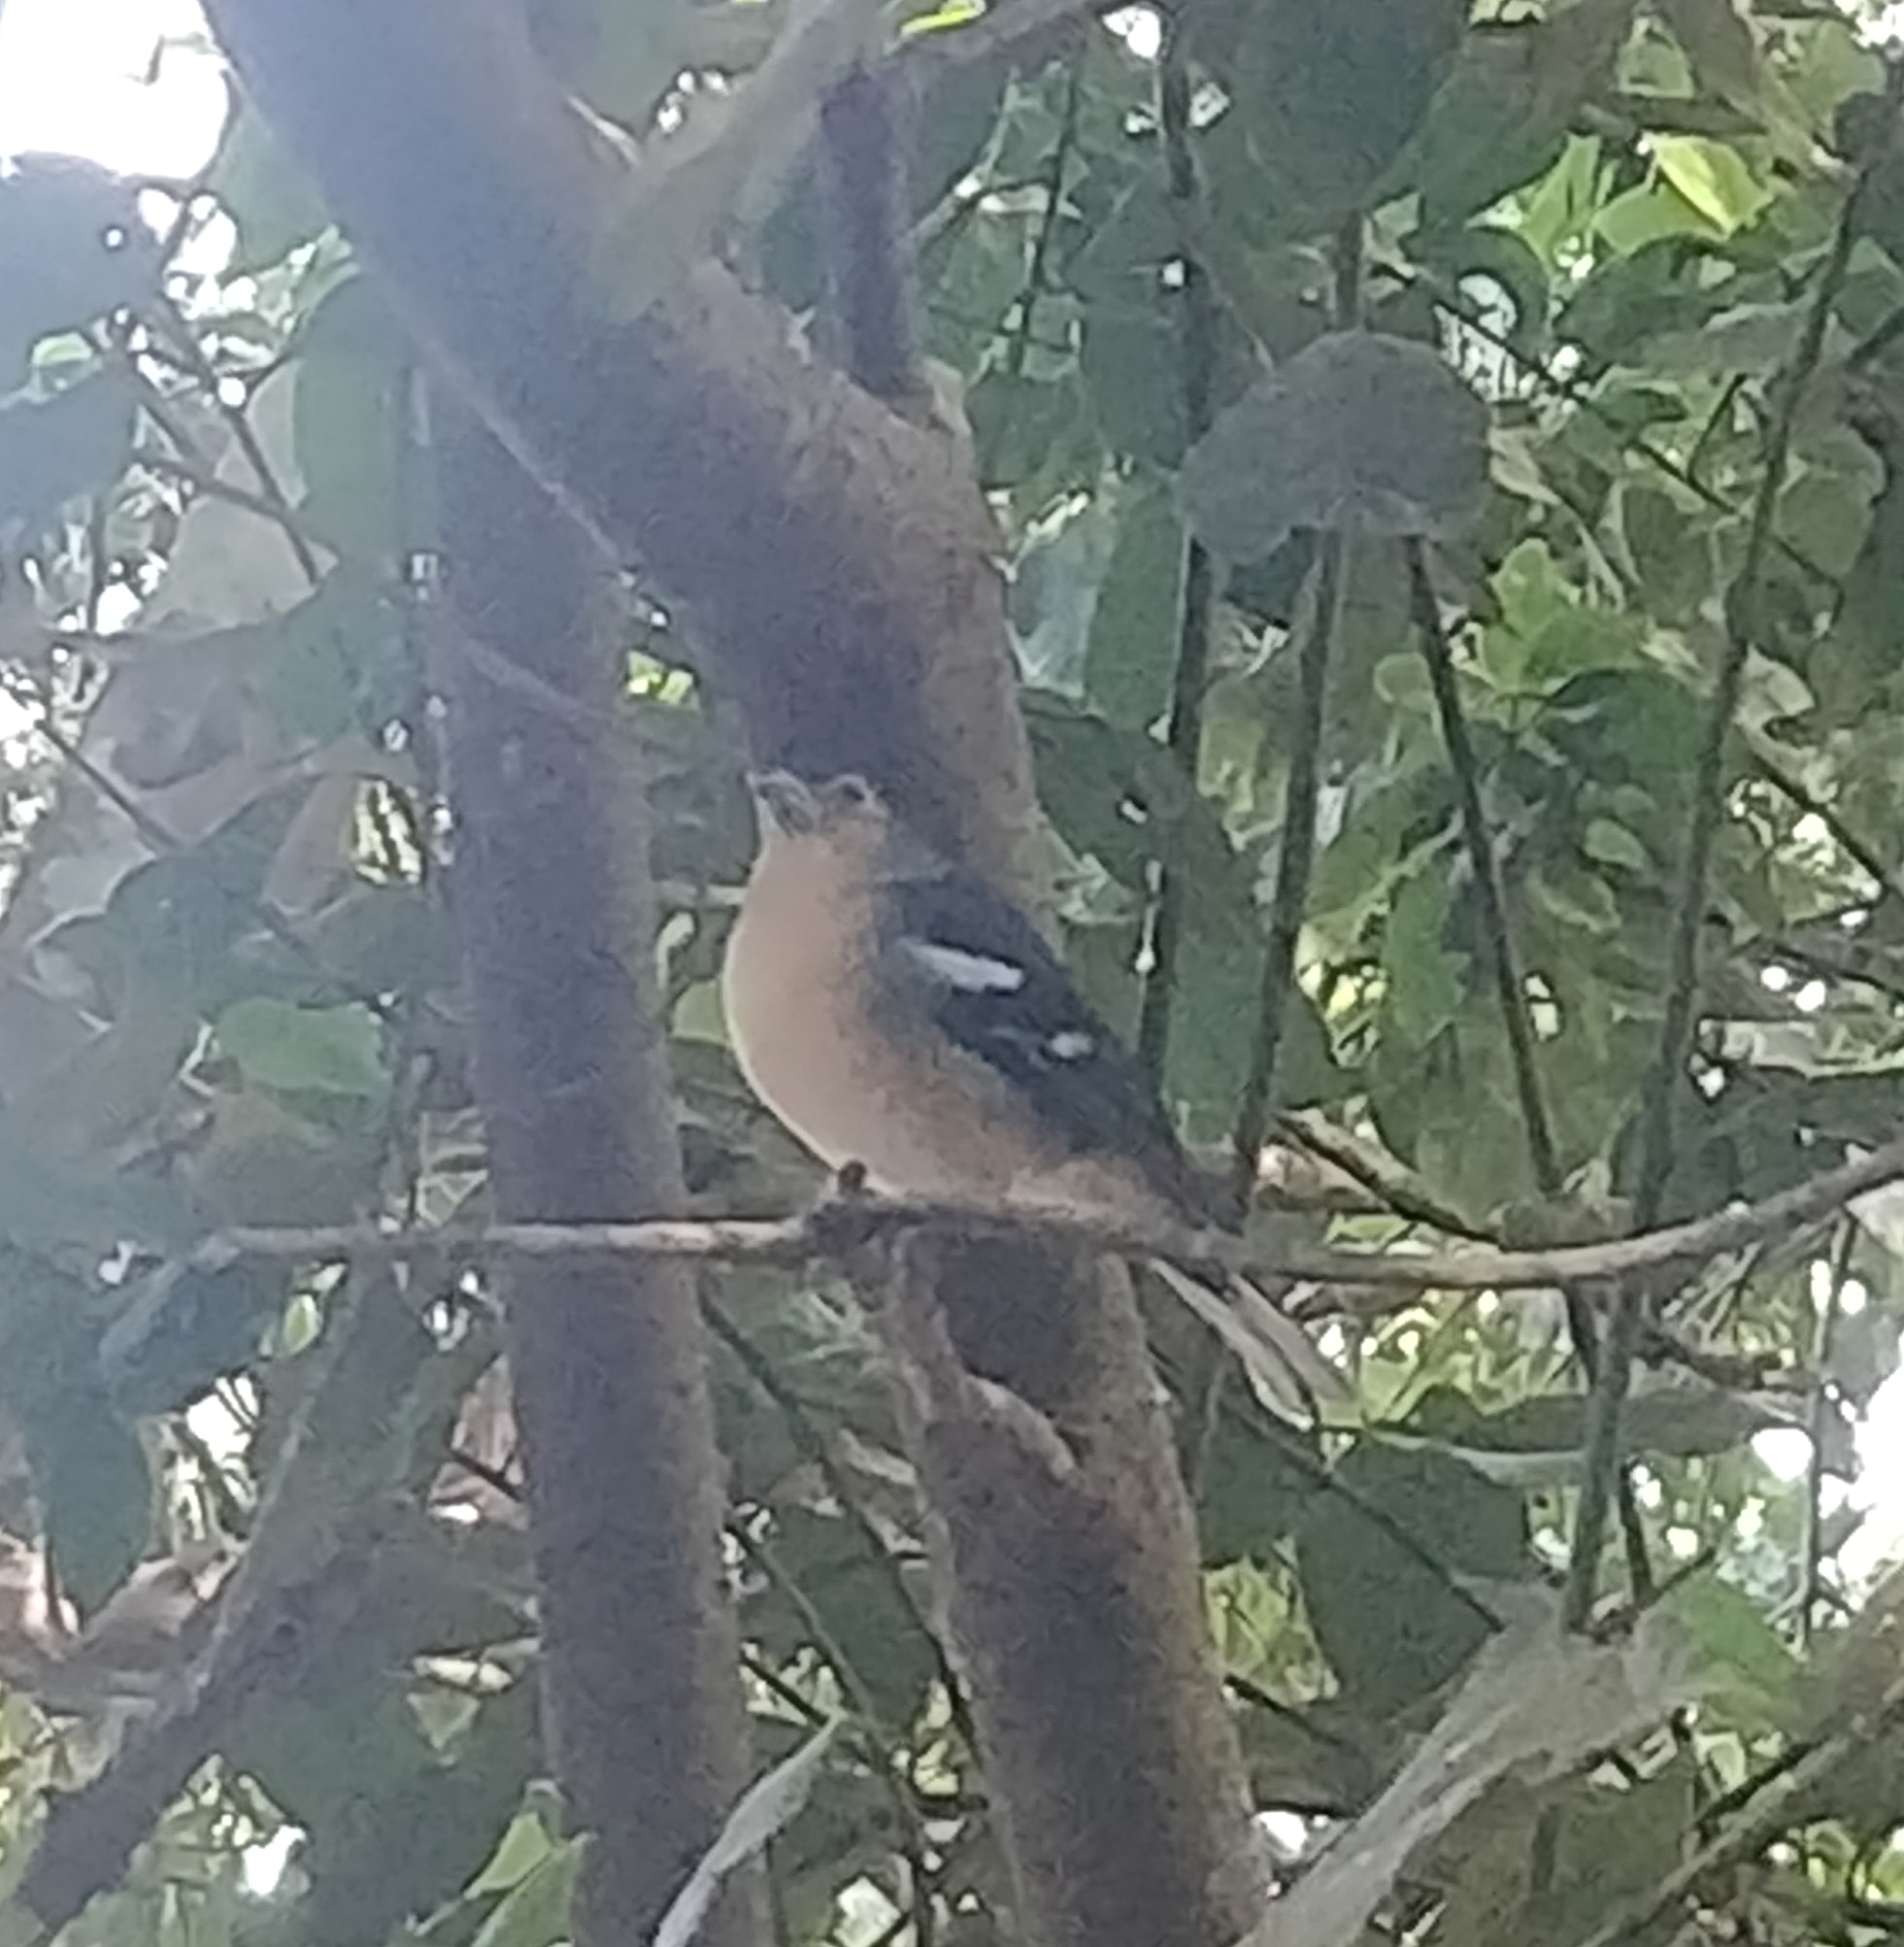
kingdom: Animalia
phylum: Chordata
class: Aves
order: Passeriformes
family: Fringillidae
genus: Fringilla
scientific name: Fringilla canariensis
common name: Canary islands chaffinch
